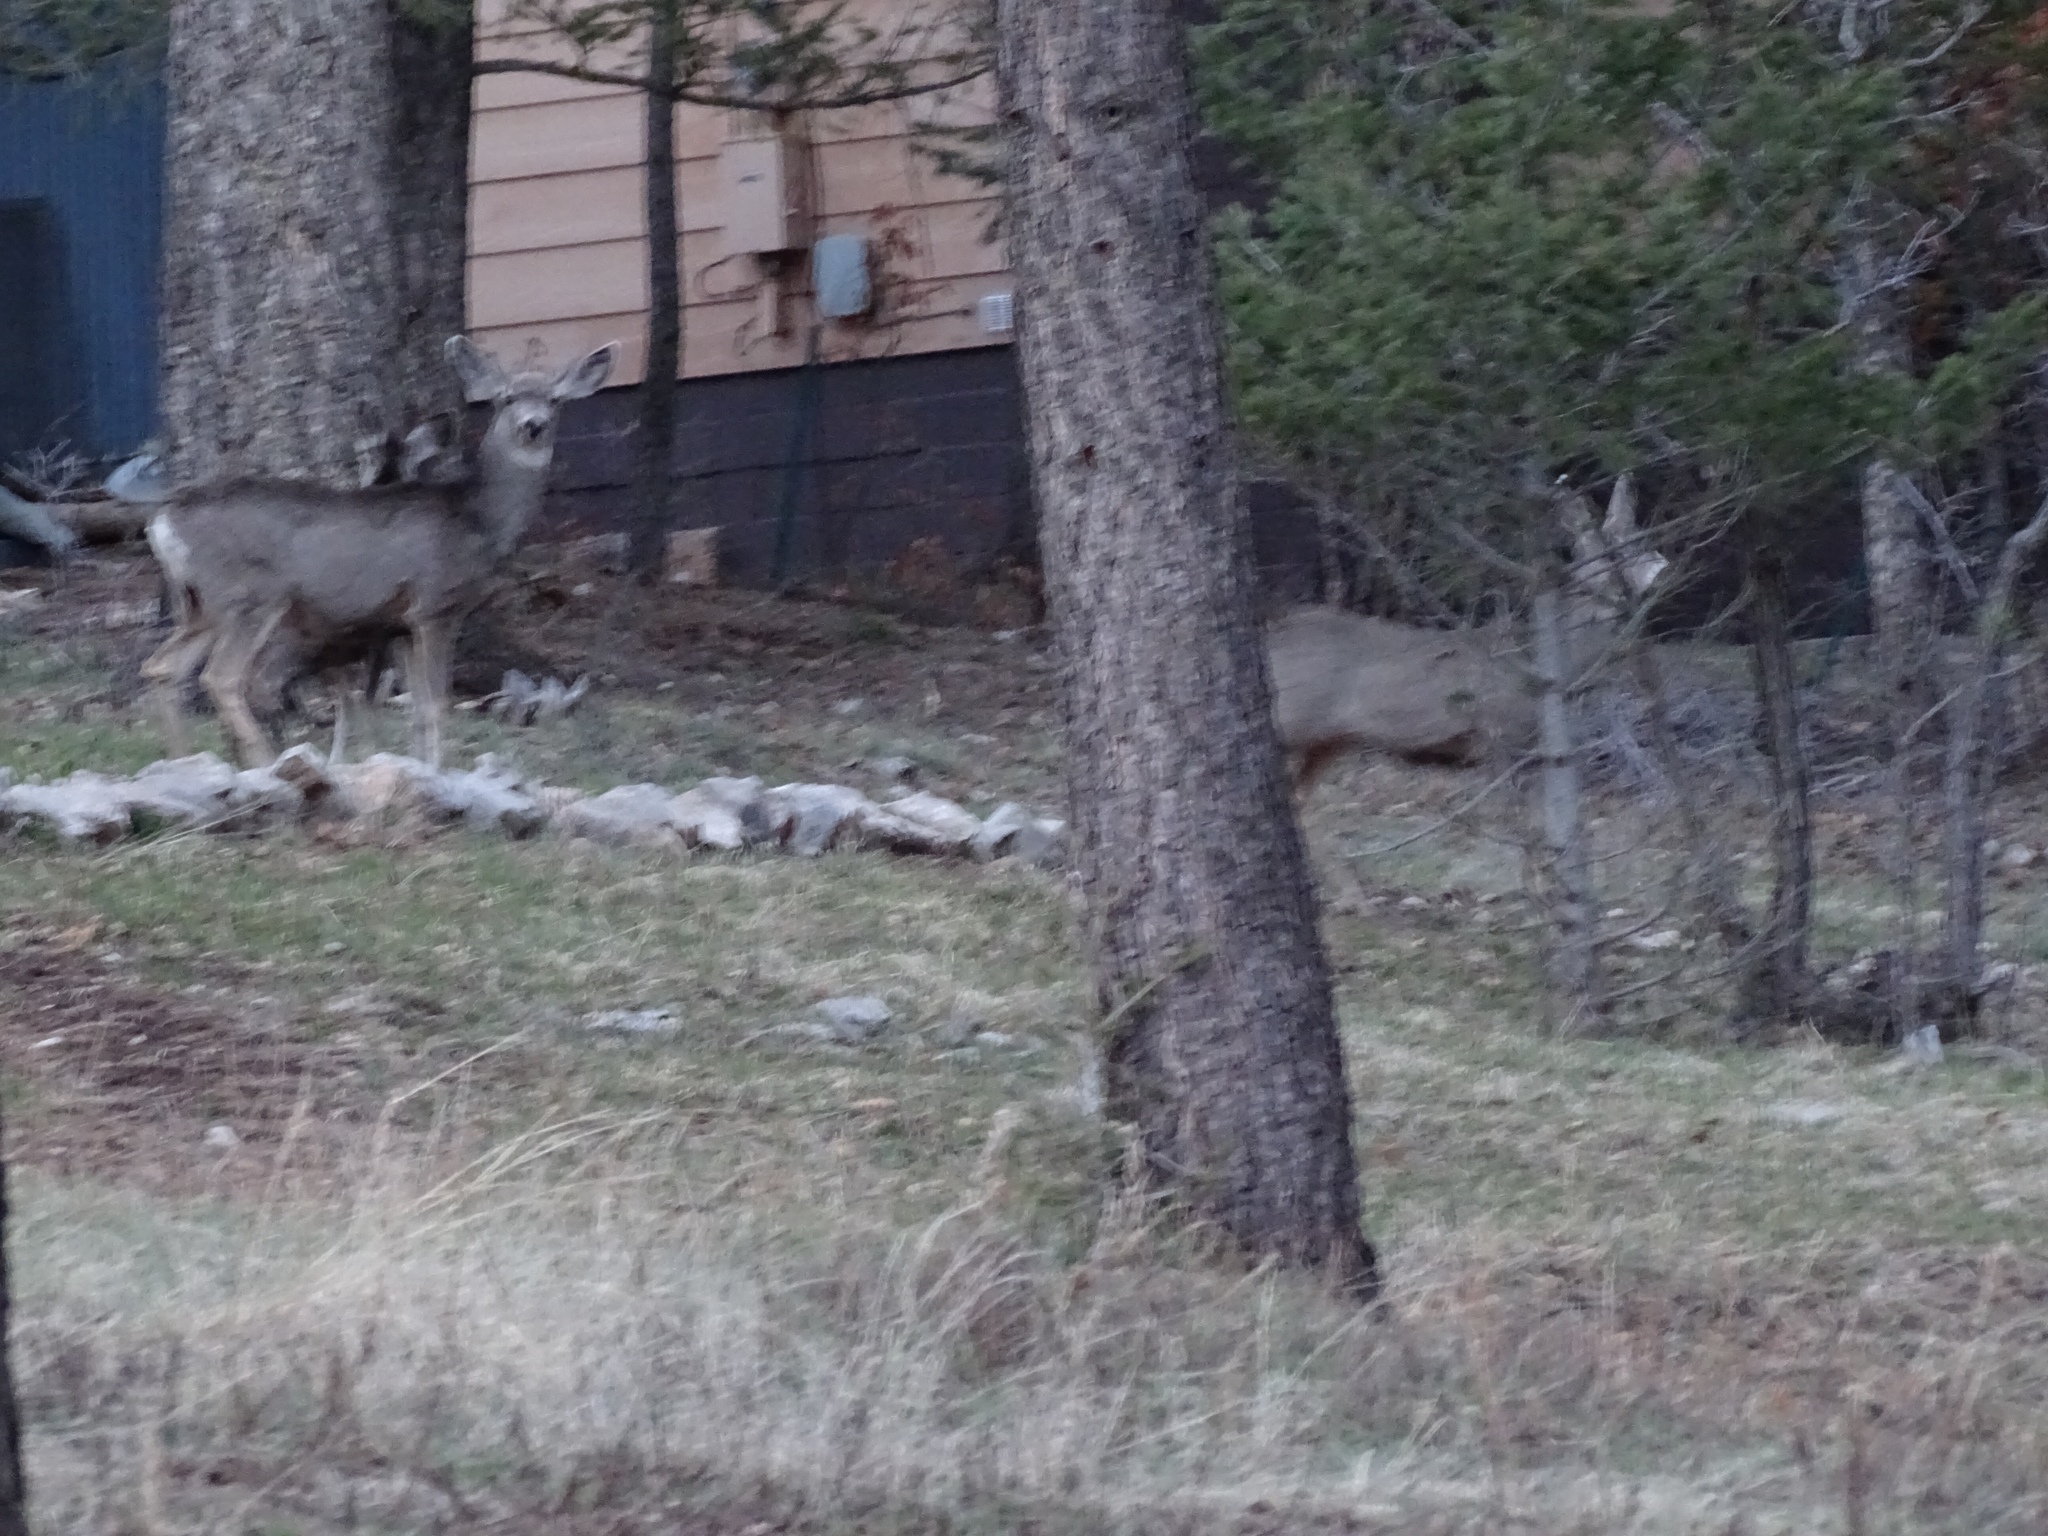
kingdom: Animalia
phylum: Chordata
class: Mammalia
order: Artiodactyla
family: Cervidae
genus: Odocoileus
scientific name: Odocoileus hemionus
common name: Mule deer
